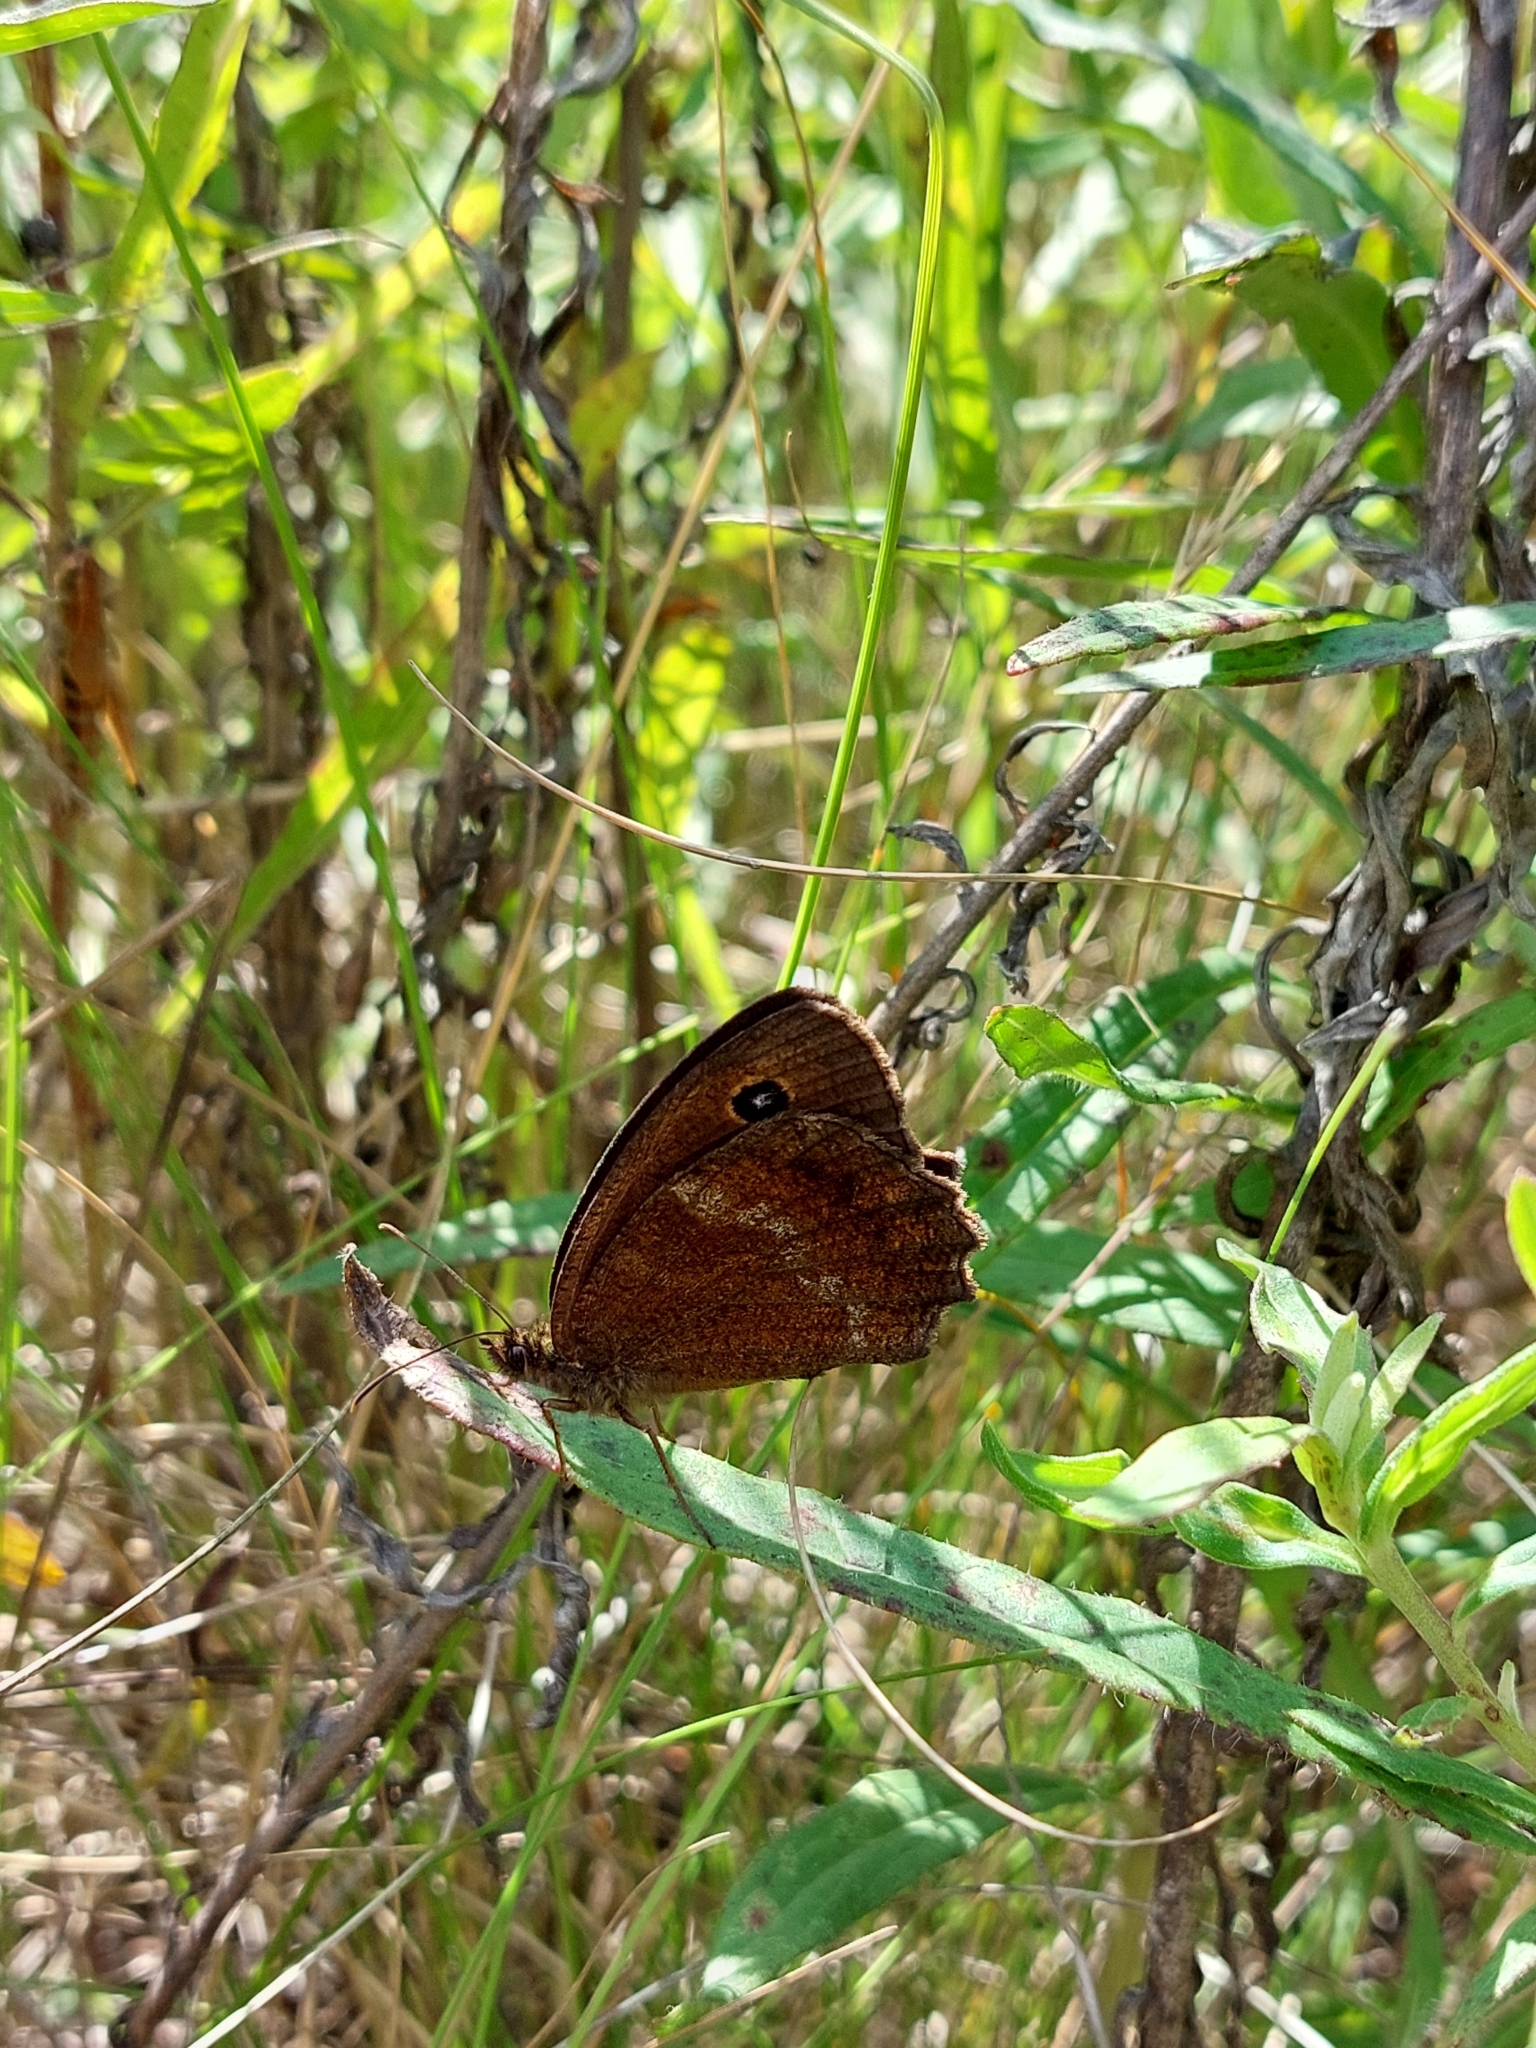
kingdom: Animalia
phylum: Arthropoda
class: Insecta
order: Lepidoptera
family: Nymphalidae
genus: Minois
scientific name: Minois dryas
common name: Dryad
